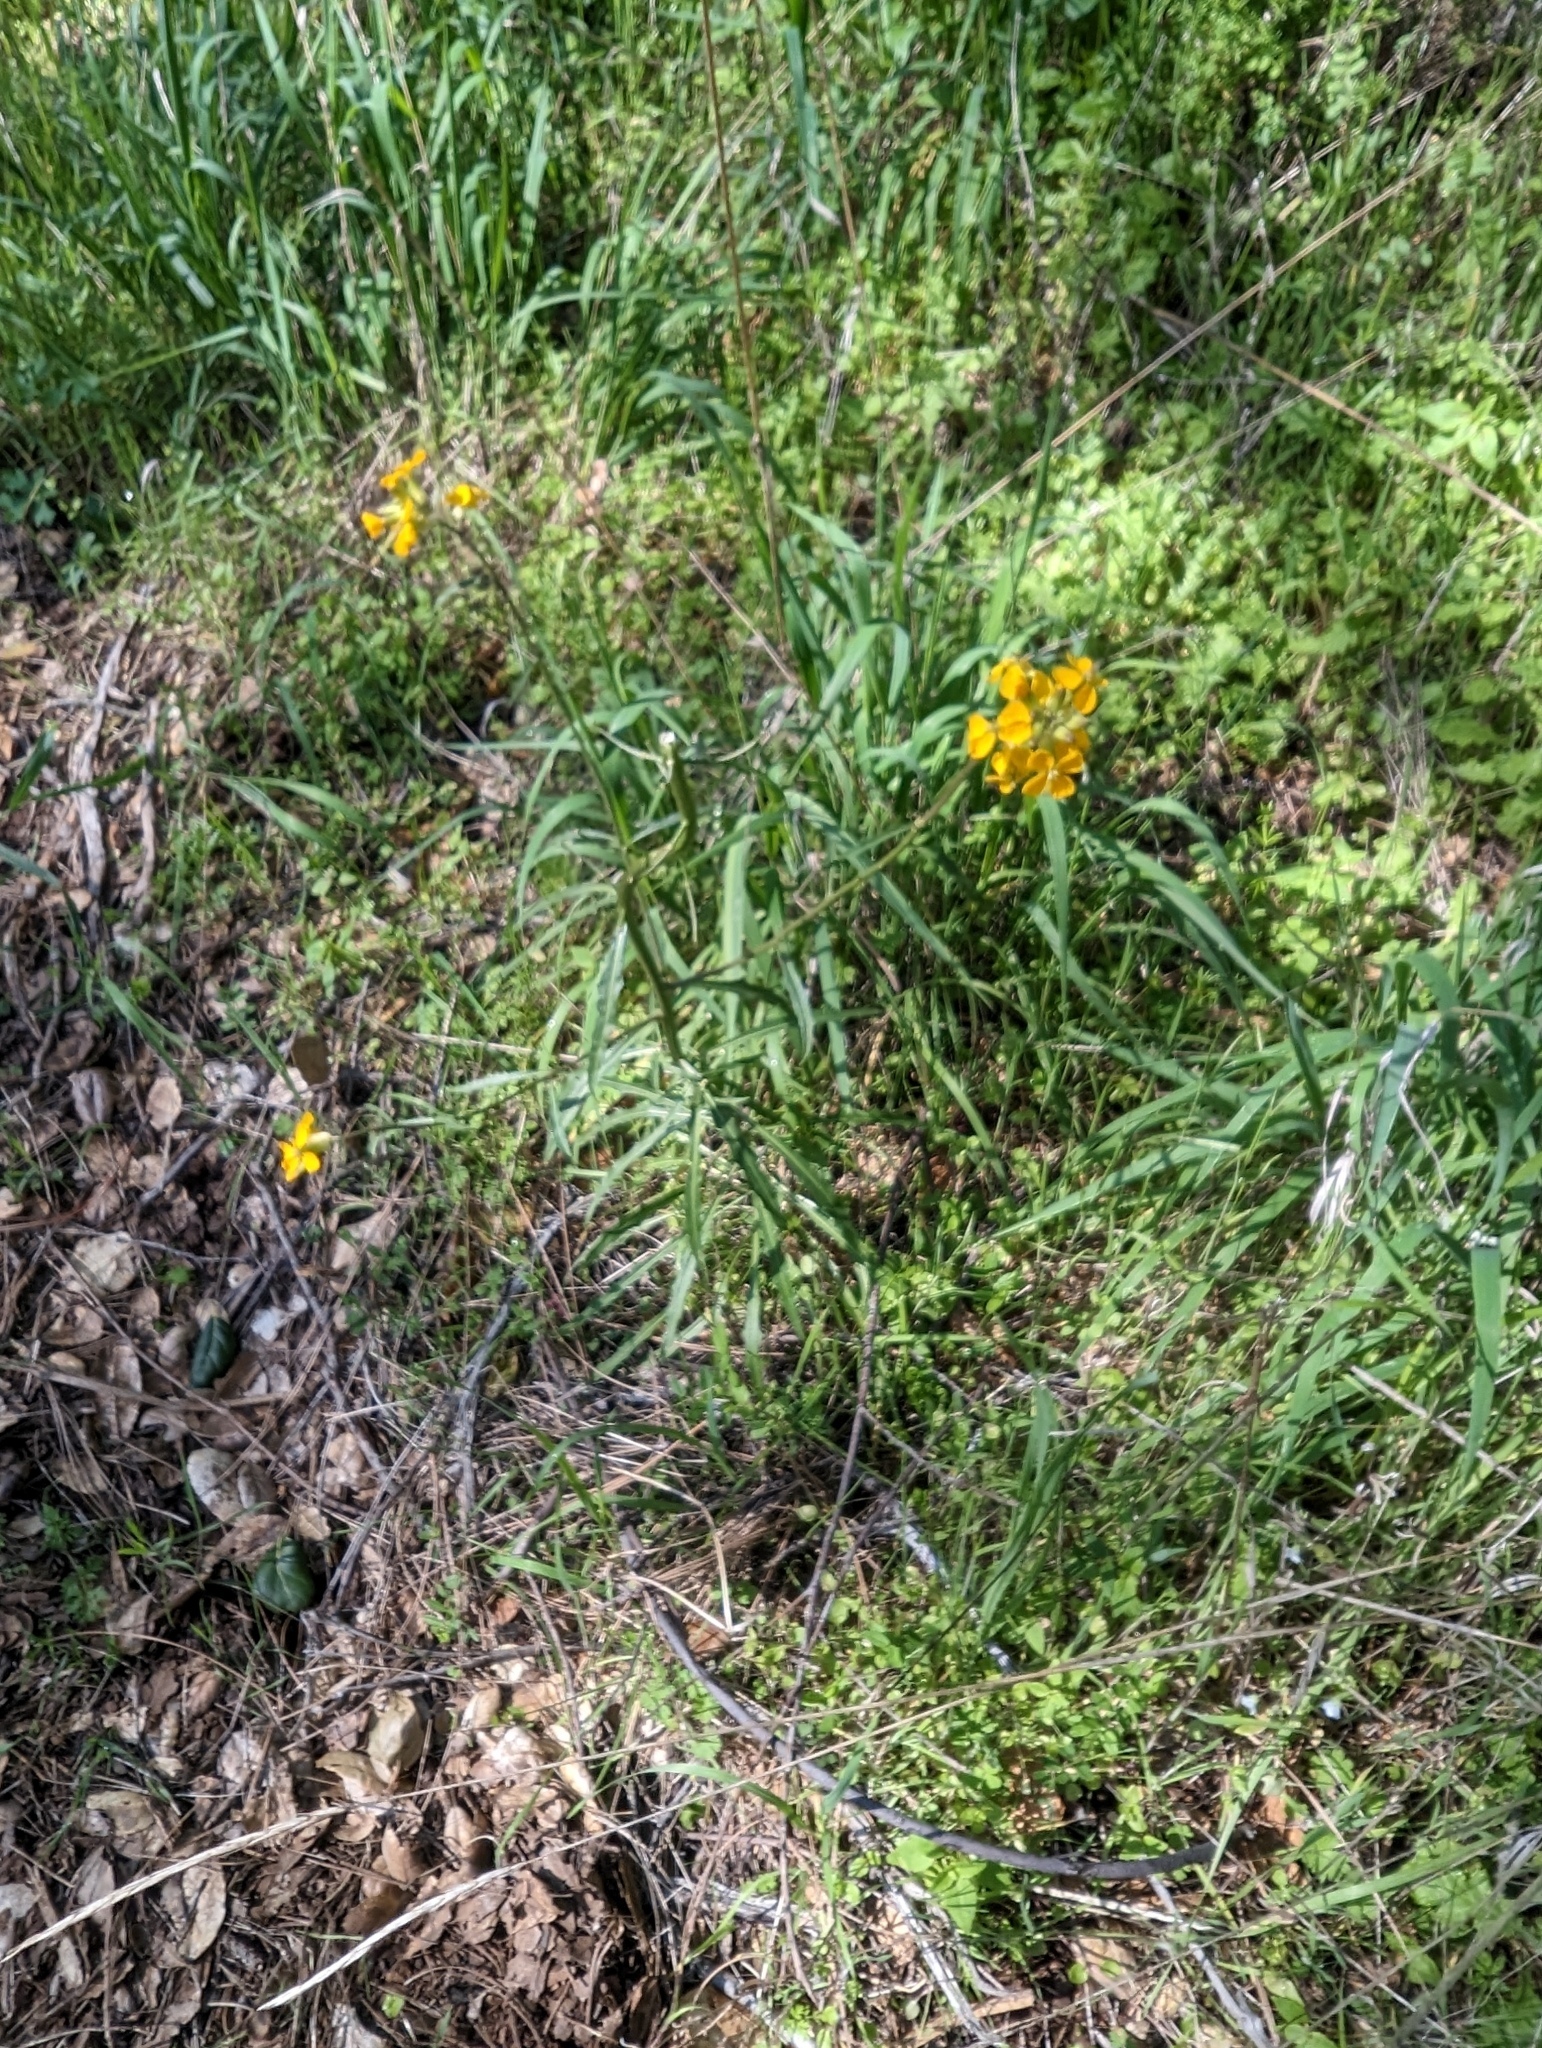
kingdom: Plantae
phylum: Tracheophyta
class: Magnoliopsida
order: Brassicales
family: Brassicaceae
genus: Erysimum
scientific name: Erysimum capitatum
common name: Western wallflower
